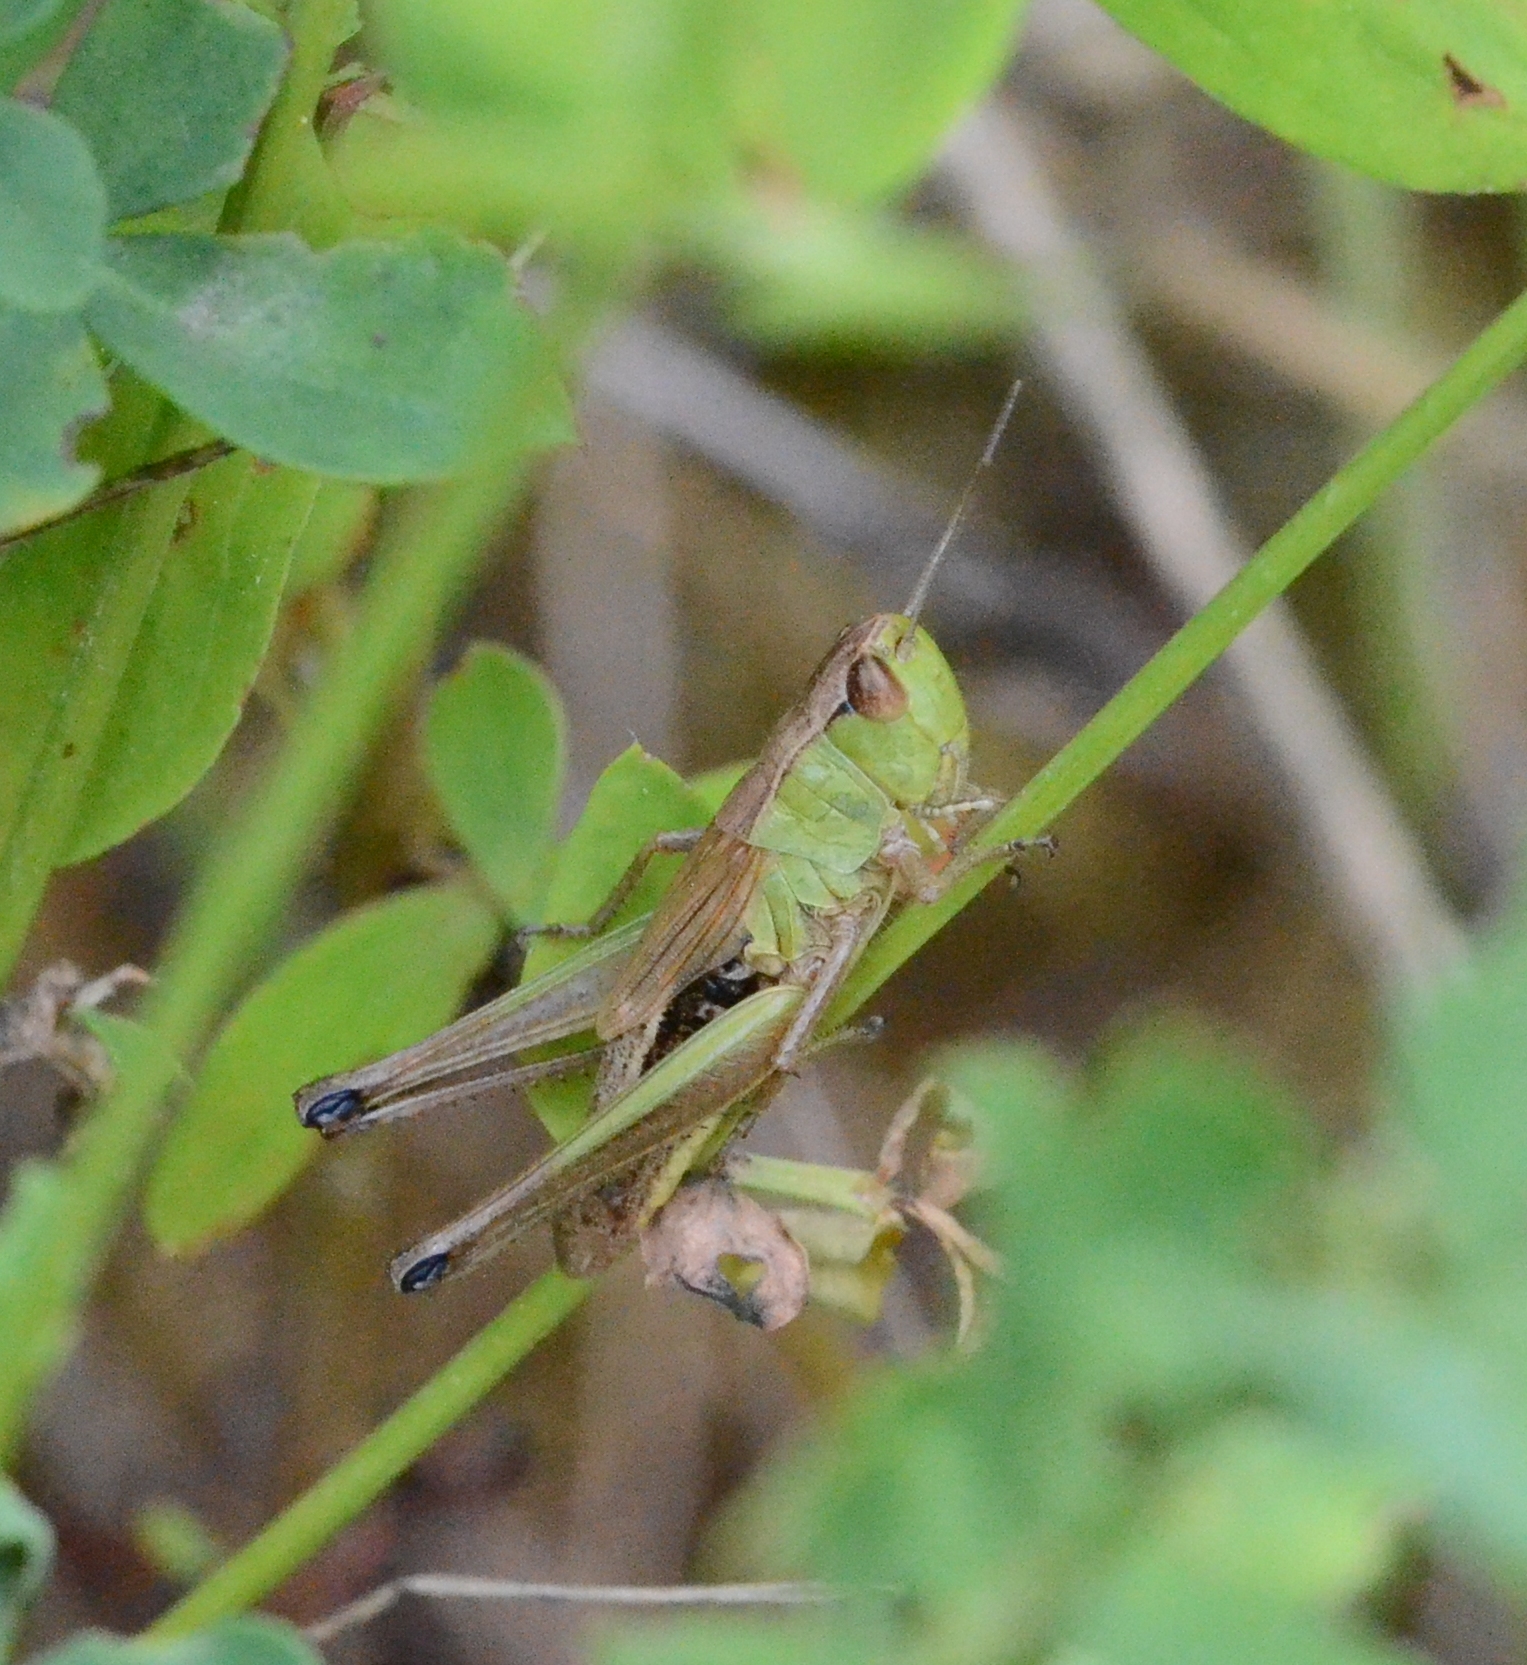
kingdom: Animalia
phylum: Arthropoda
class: Insecta
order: Orthoptera
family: Acrididae
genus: Pseudochorthippus
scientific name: Pseudochorthippus parallelus
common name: Meadow grasshopper
